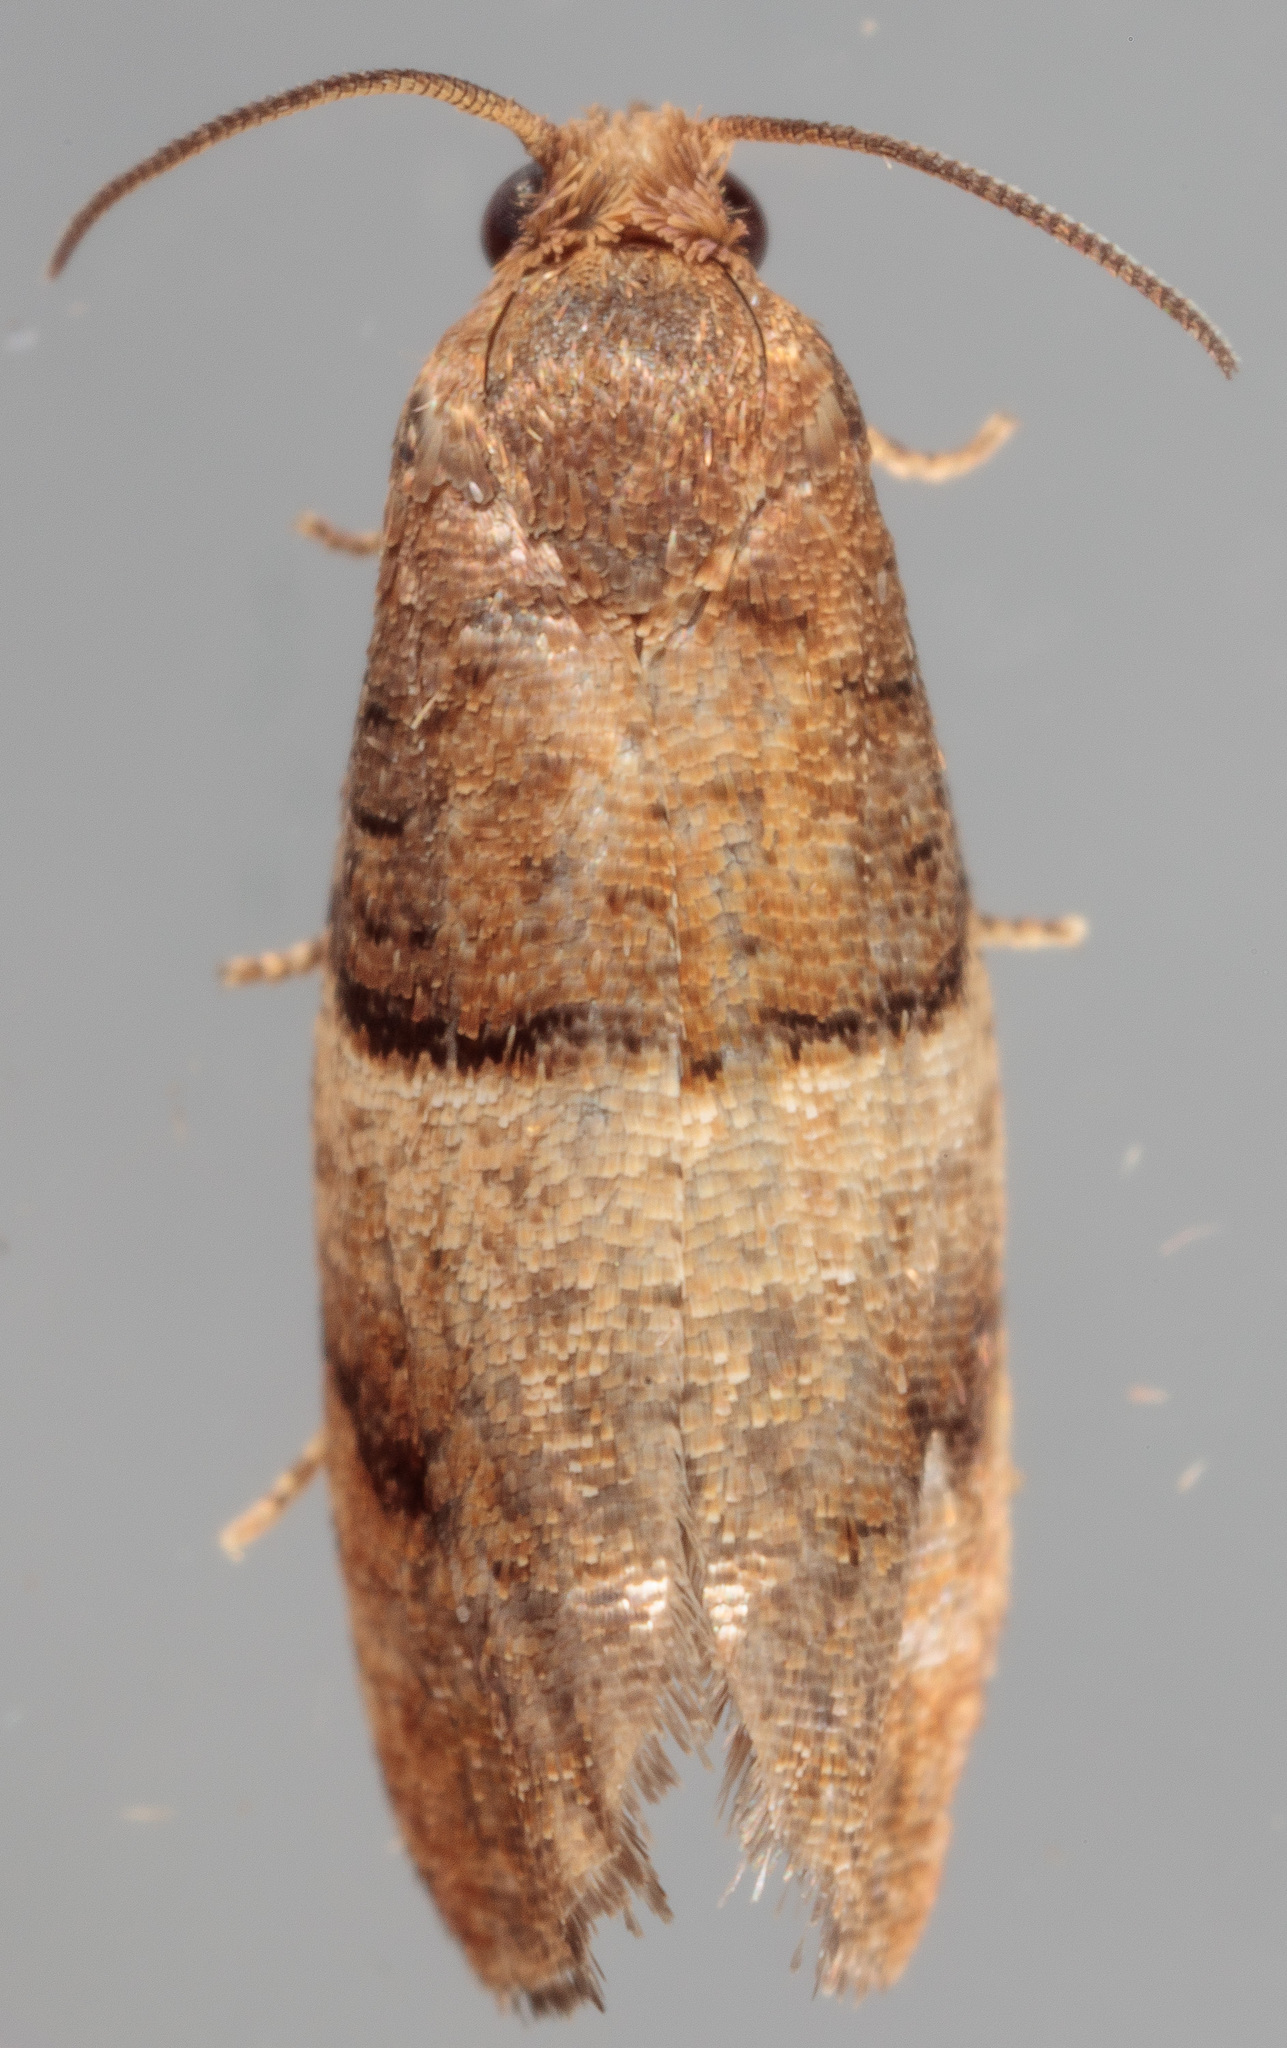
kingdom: Animalia
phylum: Arthropoda
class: Insecta
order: Lepidoptera
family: Tortricidae
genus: Larisa
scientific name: Larisa subsolana
